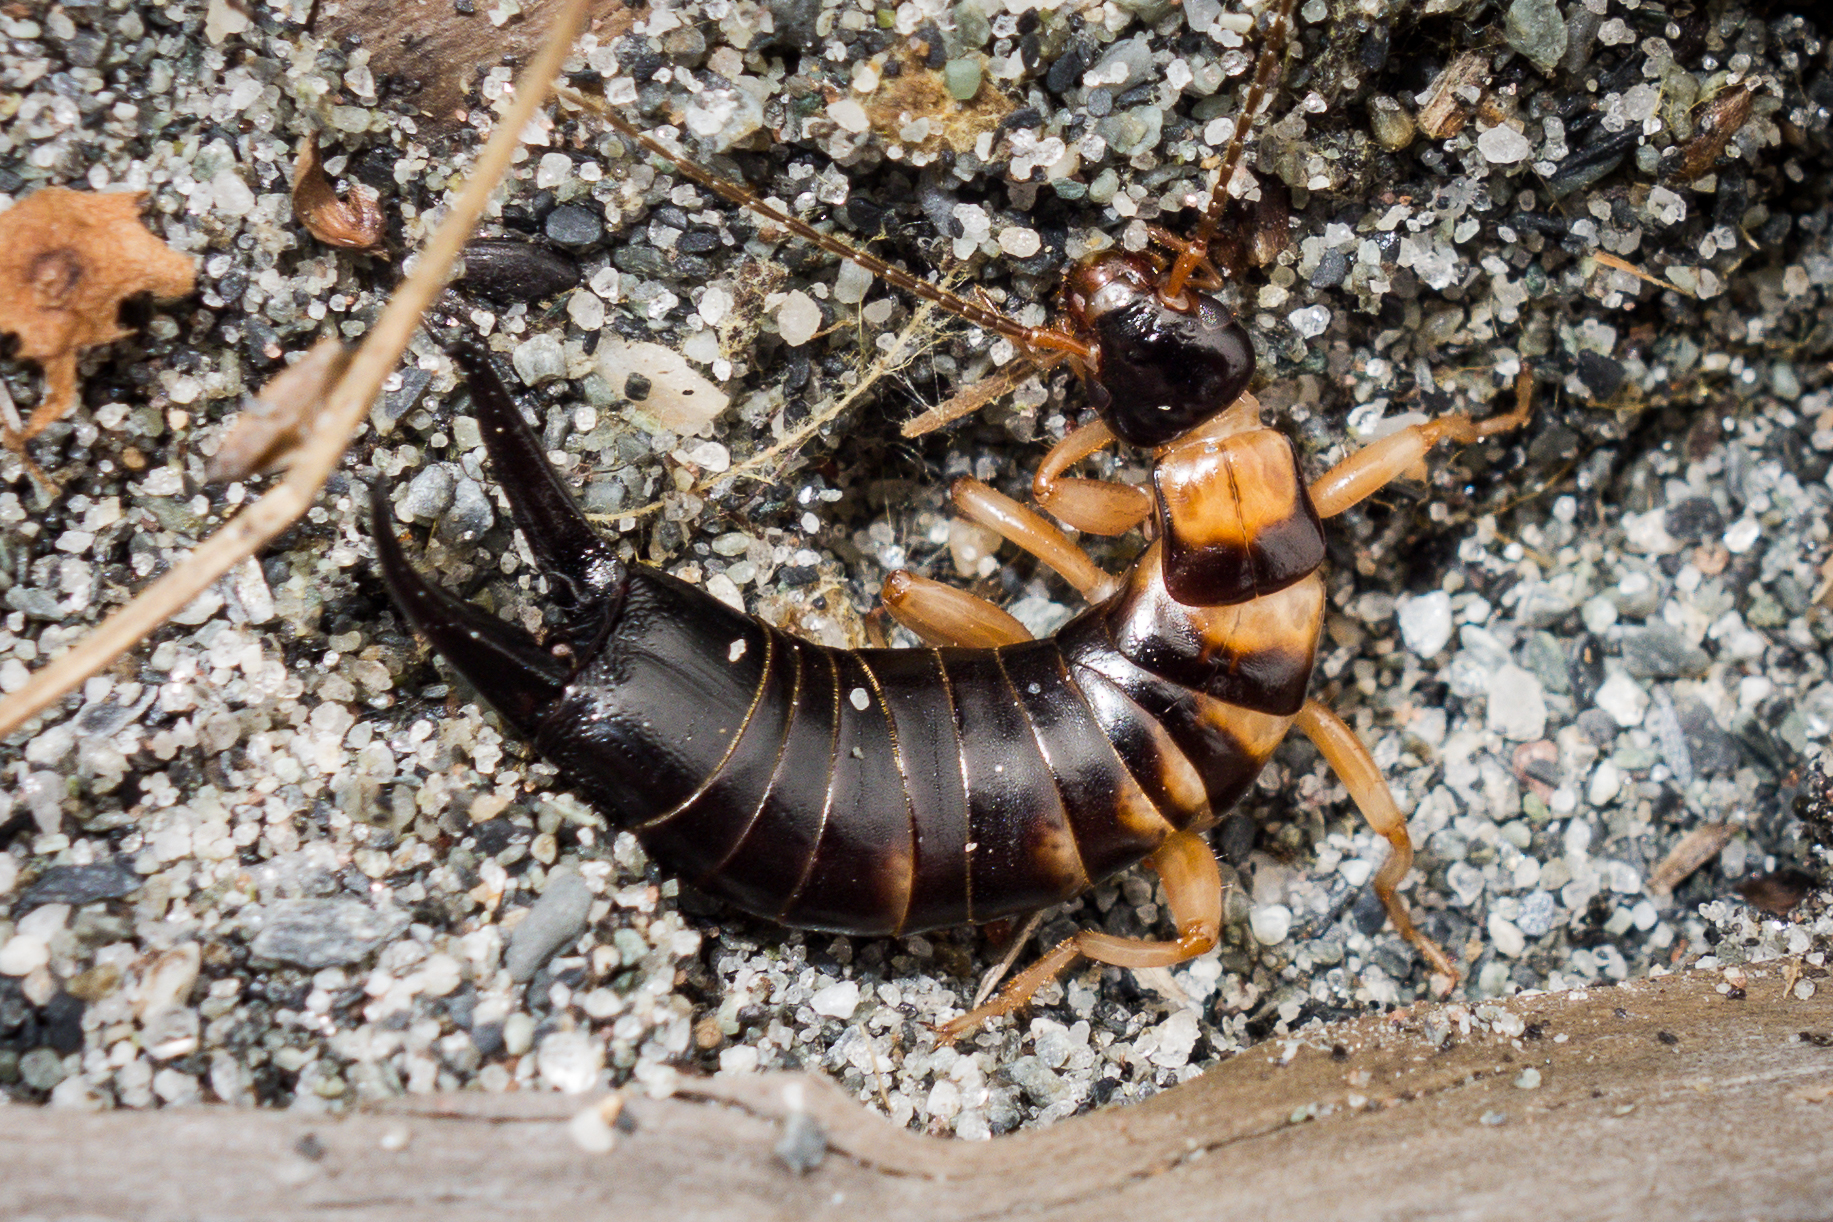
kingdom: Animalia
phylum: Arthropoda
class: Insecta
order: Dermaptera
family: Anisolabididae
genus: Anisolabis
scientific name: Anisolabis littorea
